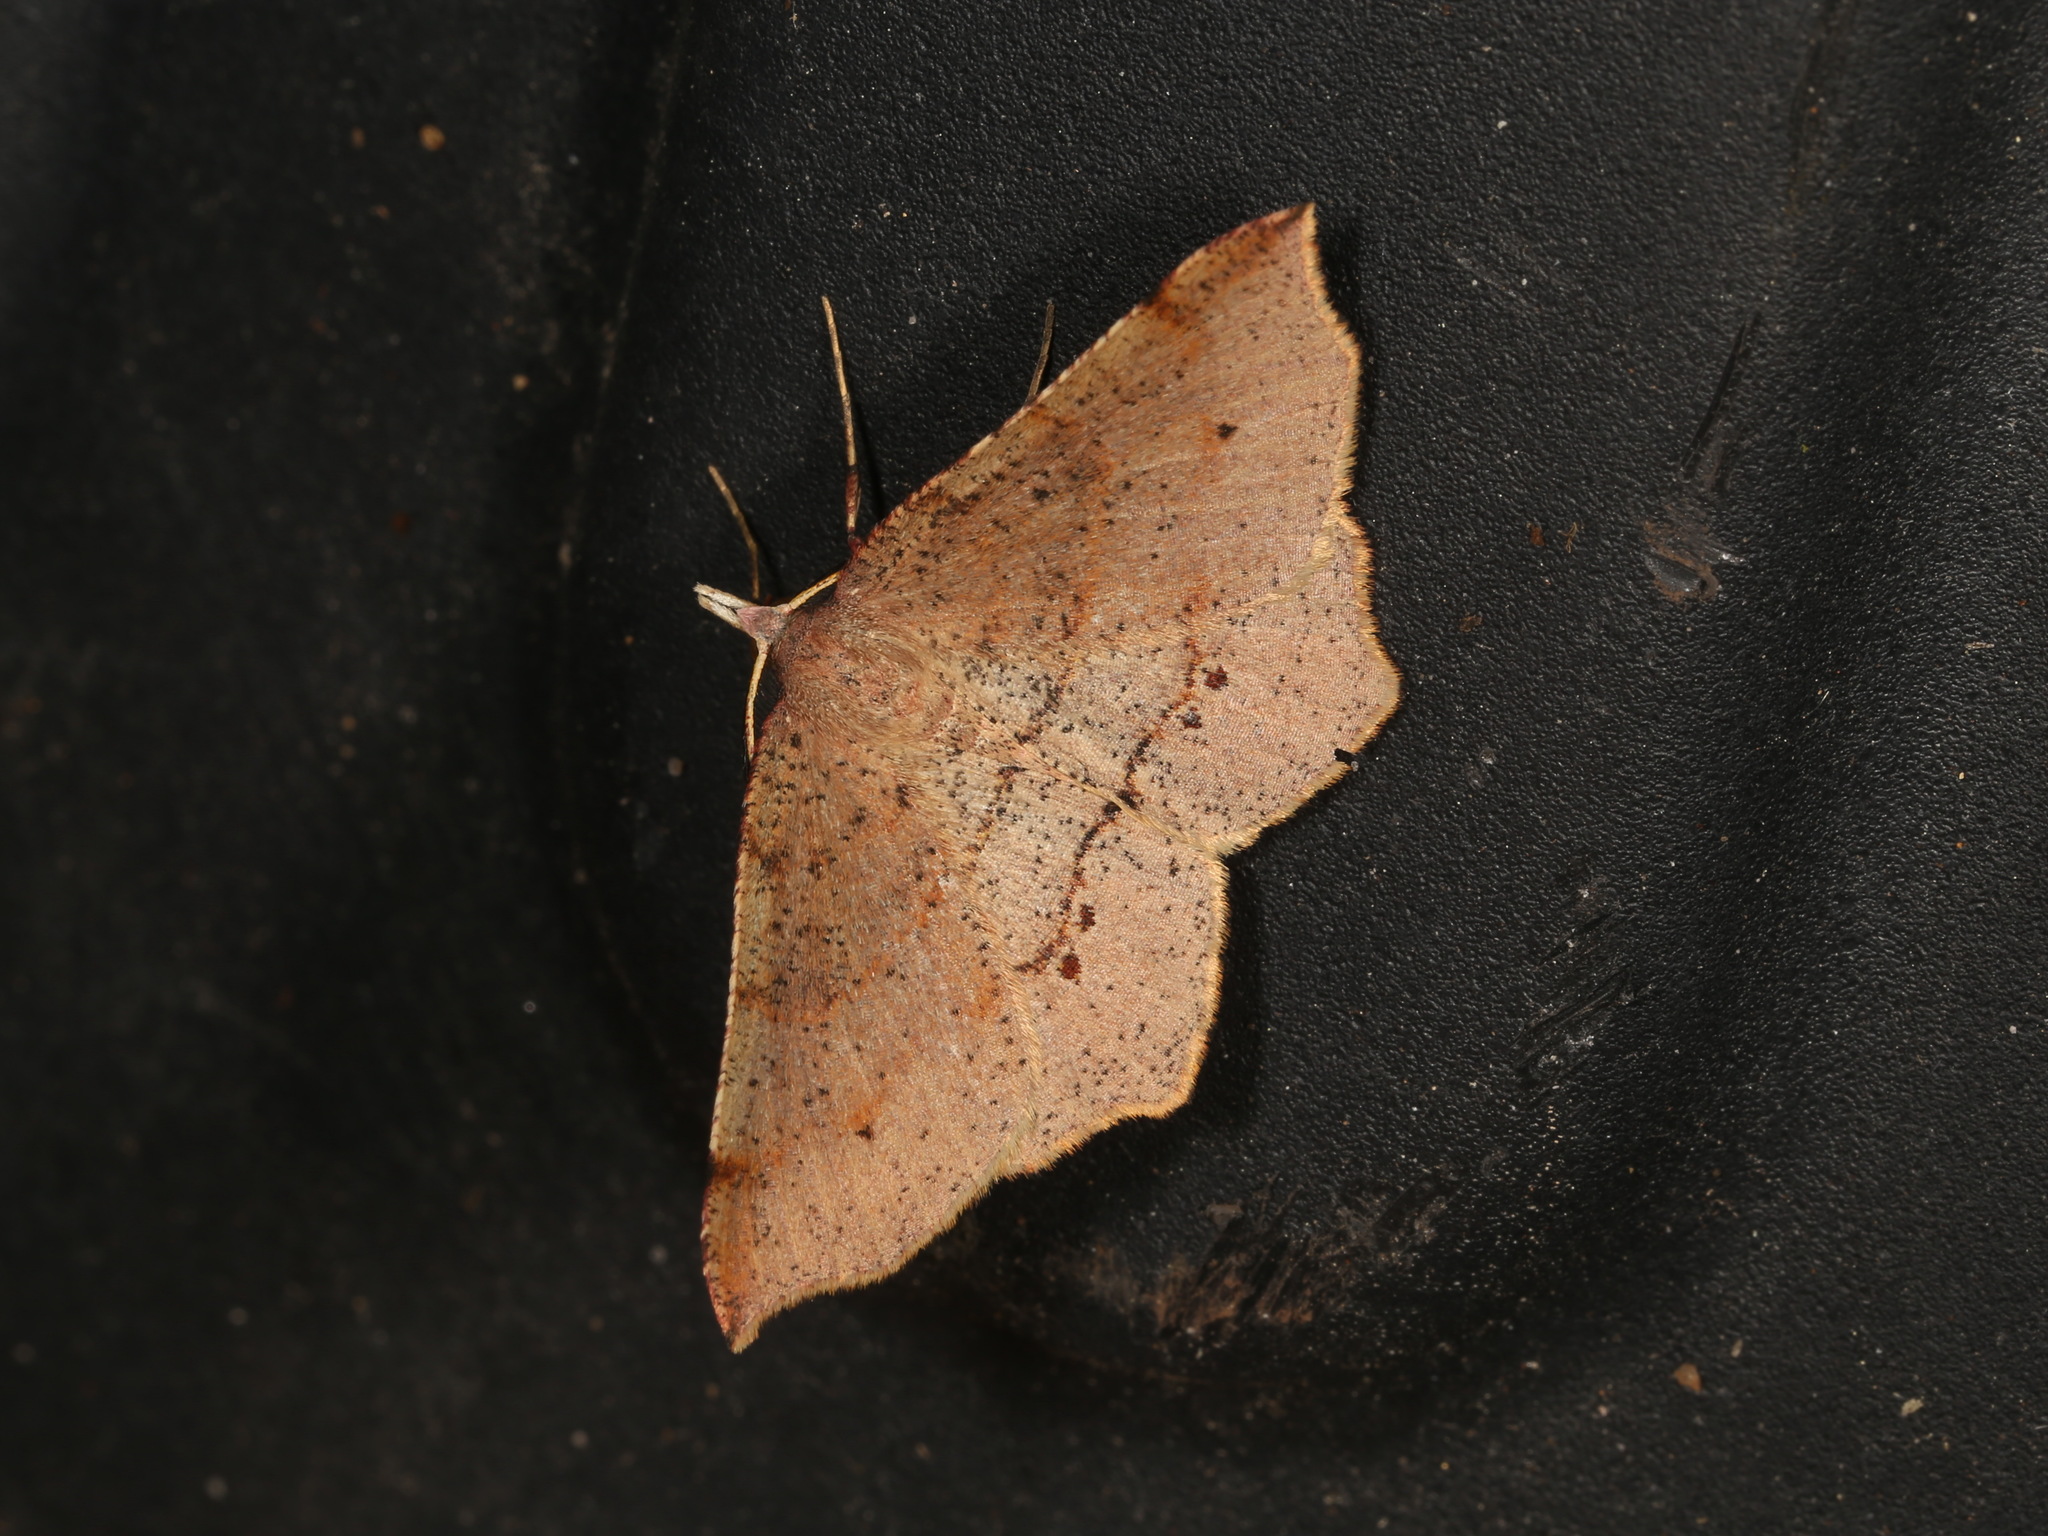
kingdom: Animalia
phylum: Arthropoda
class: Insecta
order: Lepidoptera
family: Geometridae
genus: Rhinodia
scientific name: Rhinodia rostraria
